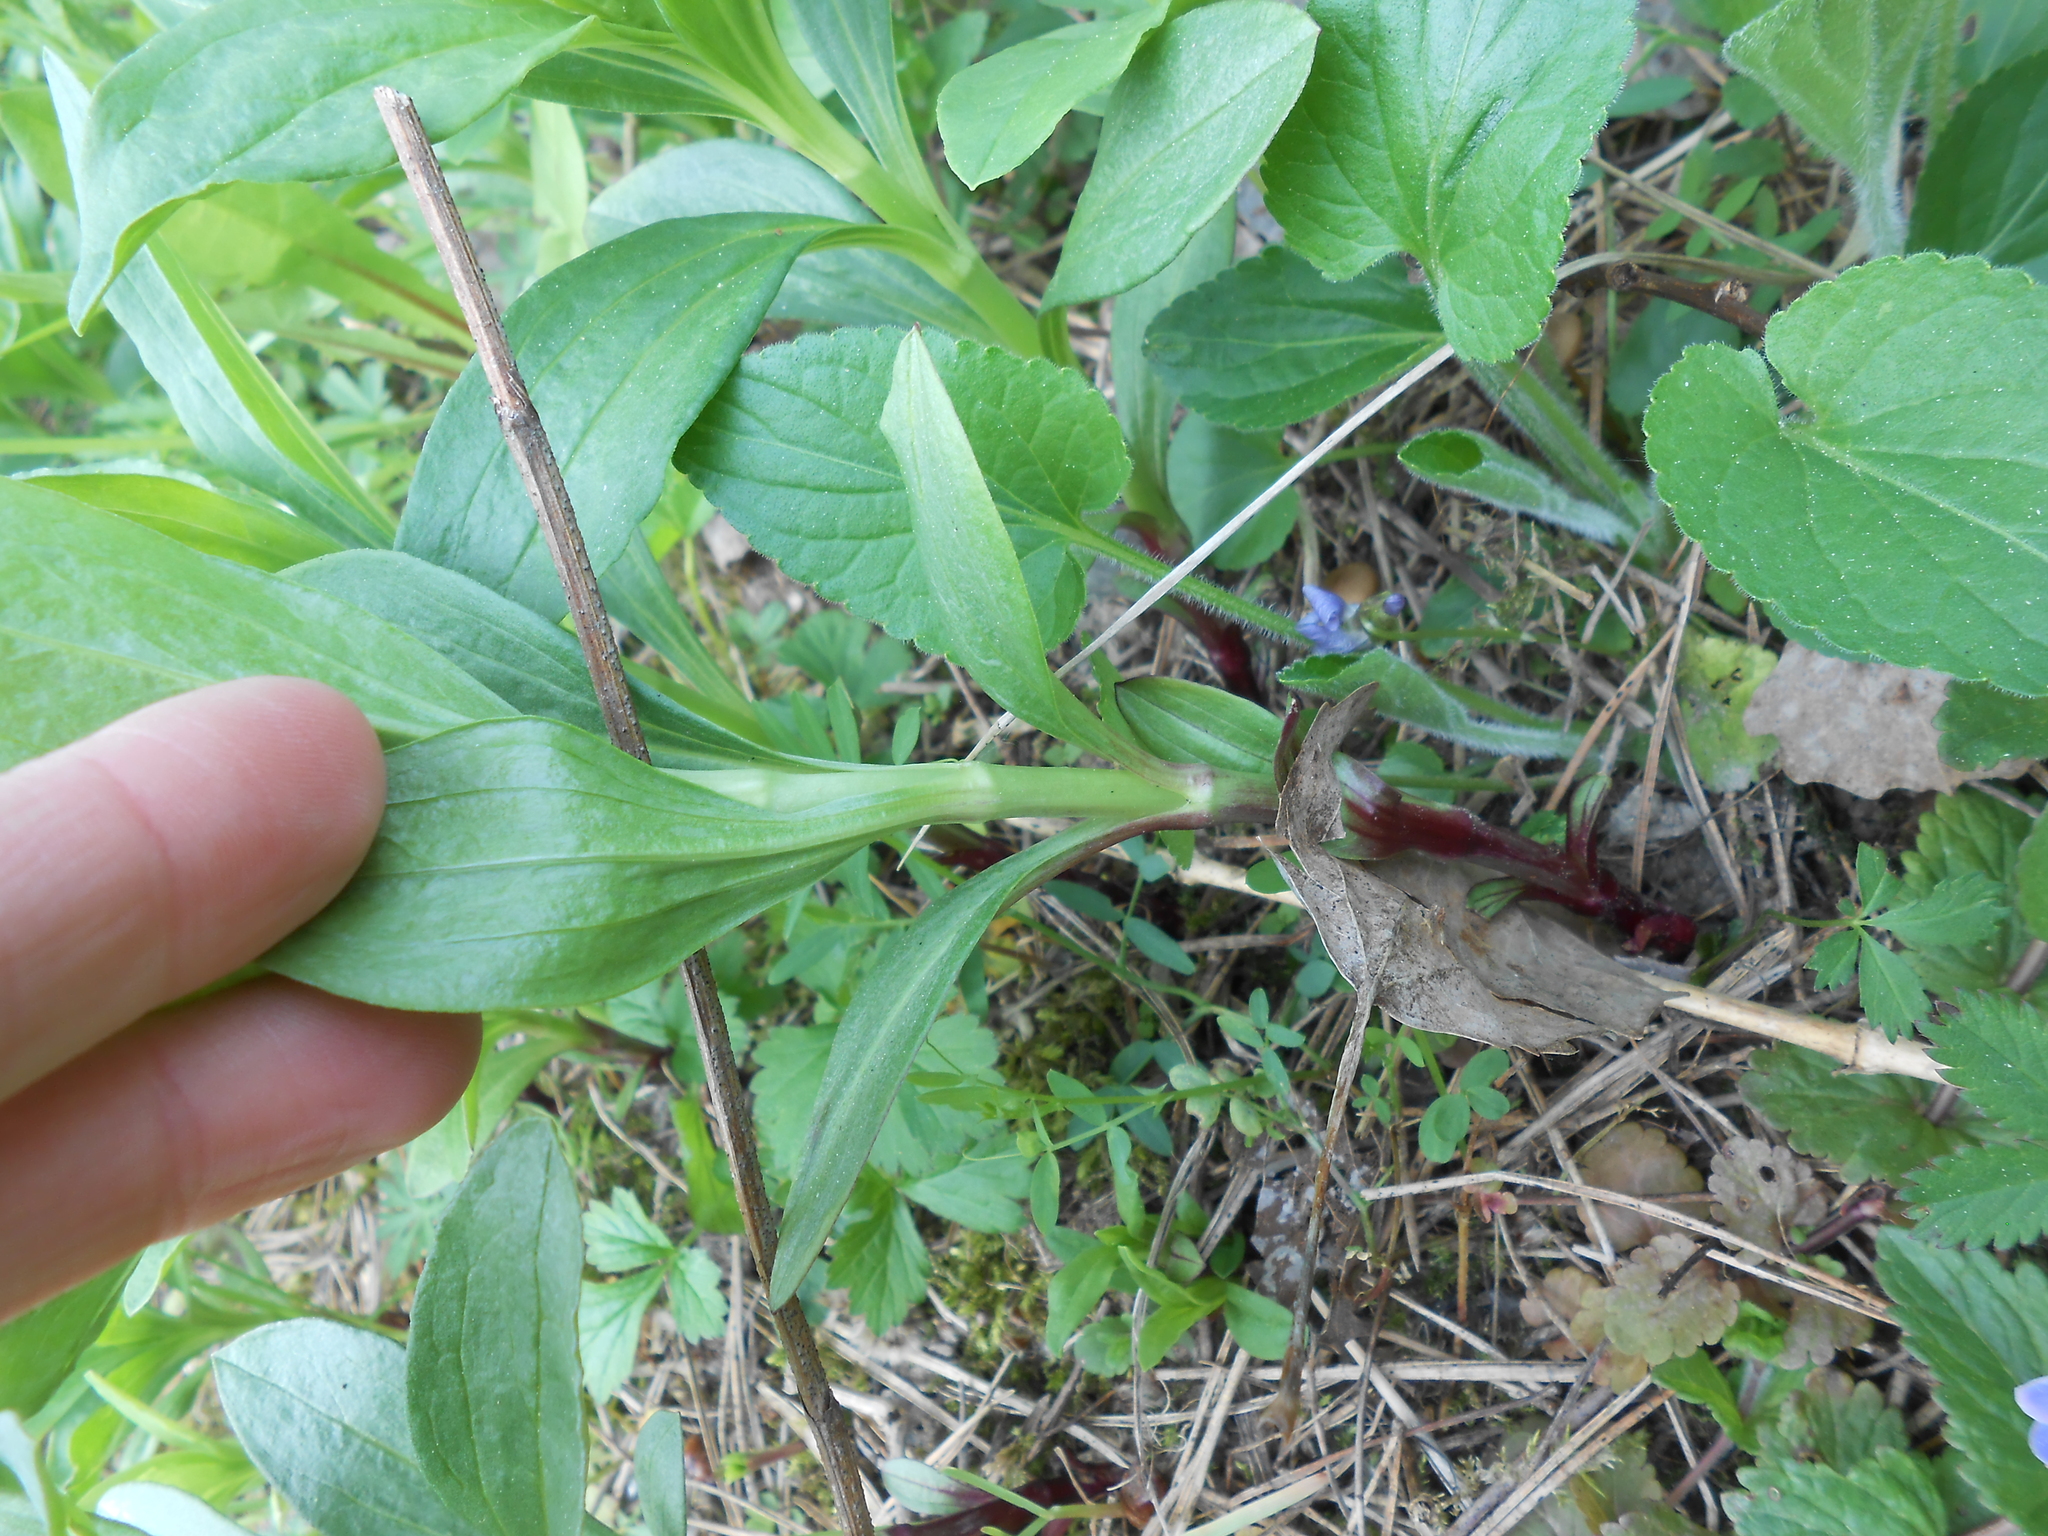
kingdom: Plantae
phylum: Tracheophyta
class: Magnoliopsida
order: Caryophyllales
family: Caryophyllaceae
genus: Saponaria
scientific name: Saponaria officinalis
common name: Soapwort
